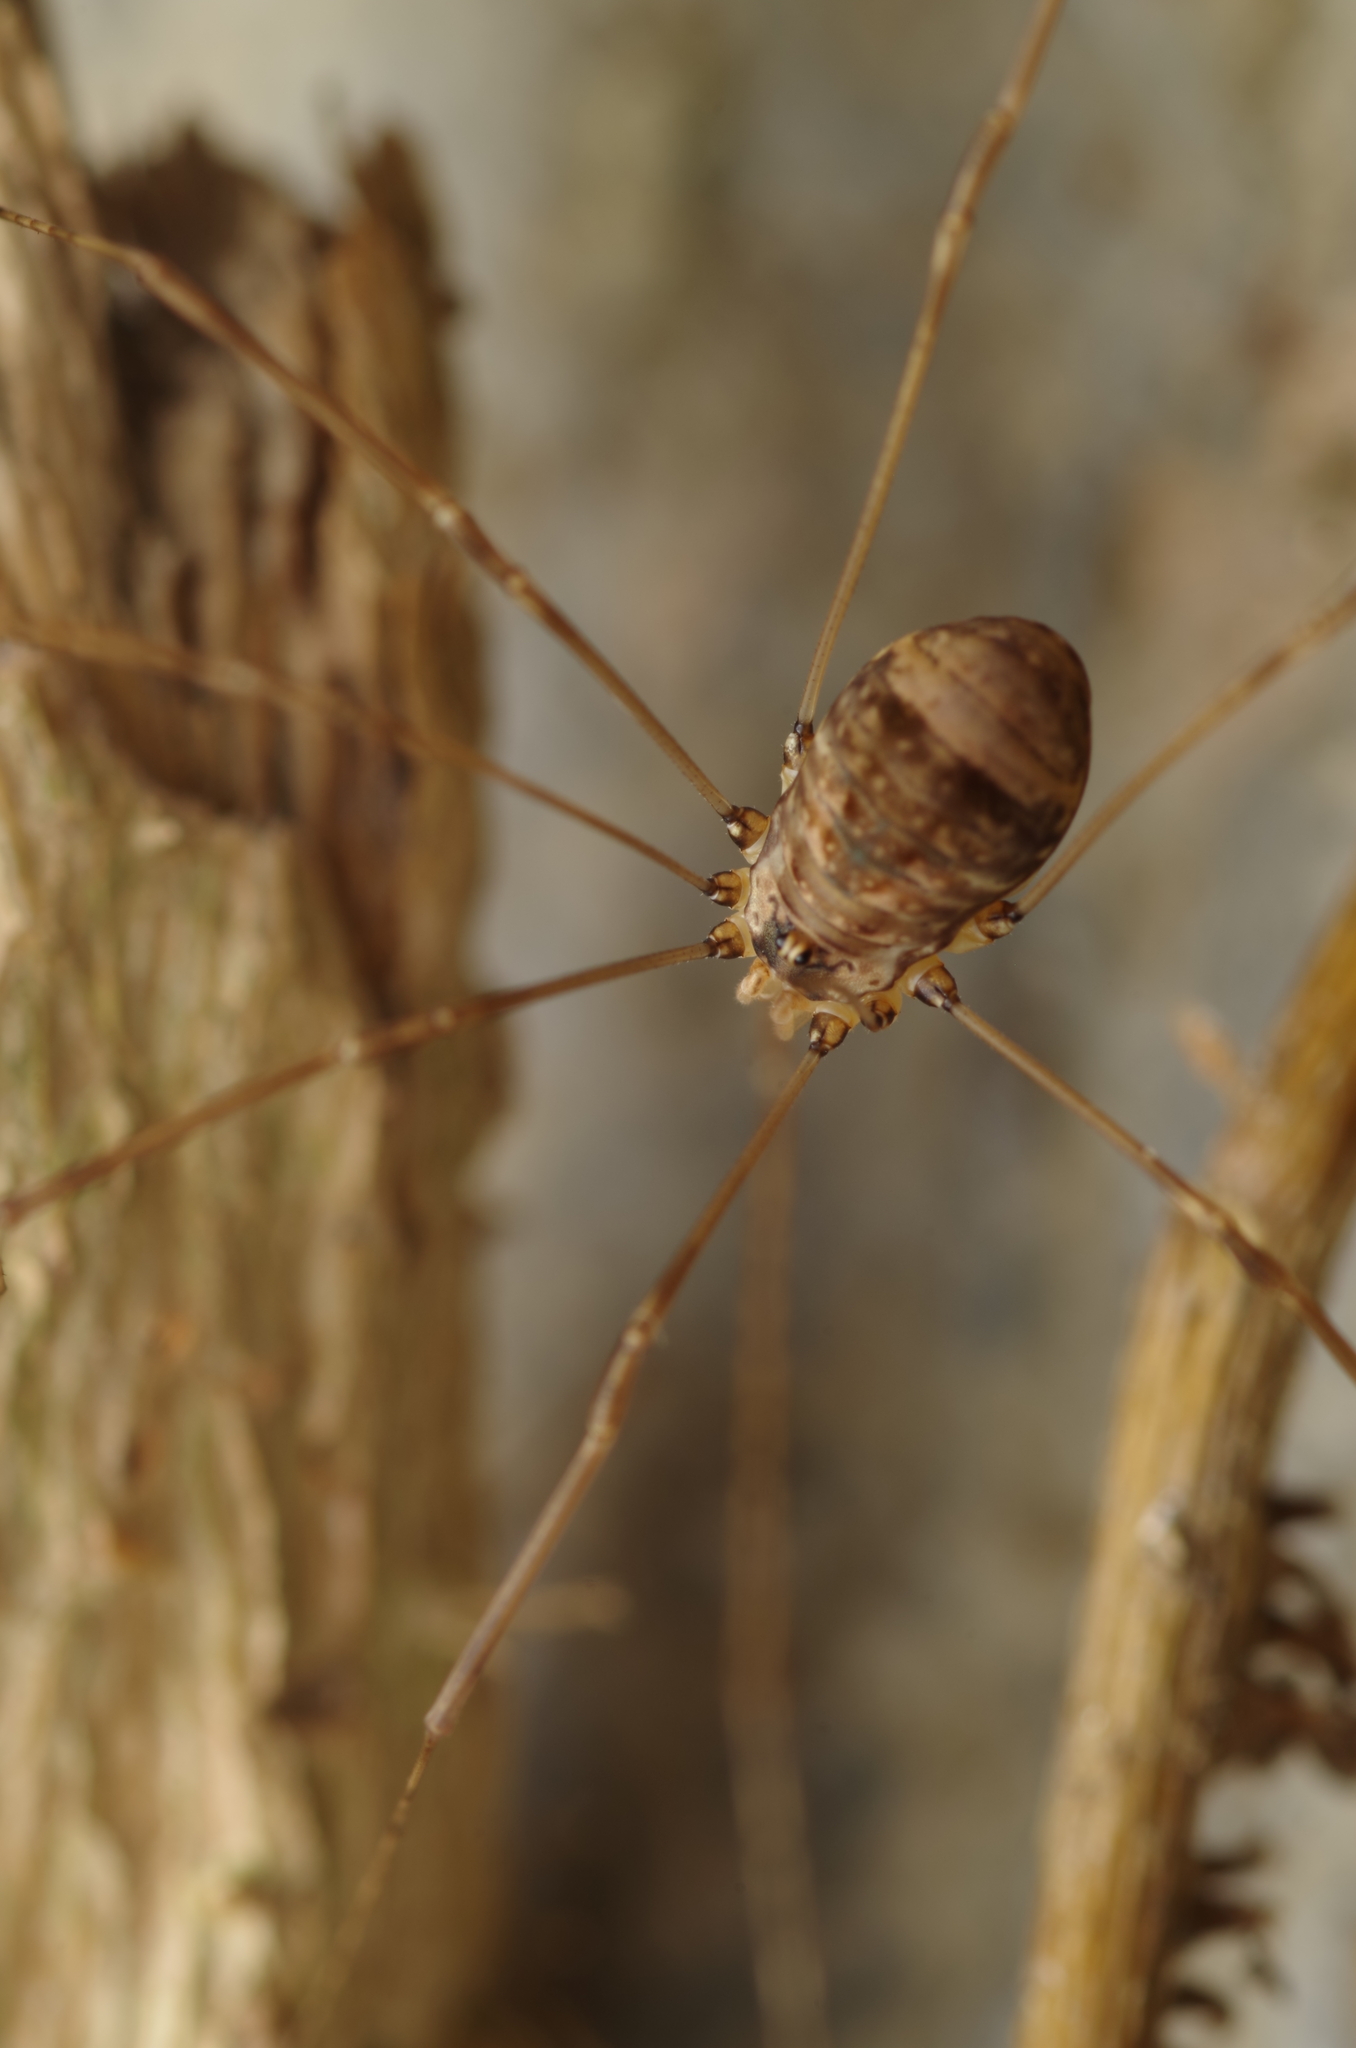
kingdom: Animalia
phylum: Arthropoda
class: Arachnida
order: Opiliones
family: Sclerosomatidae
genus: Leiobunum
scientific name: Leiobunum blackwalli
